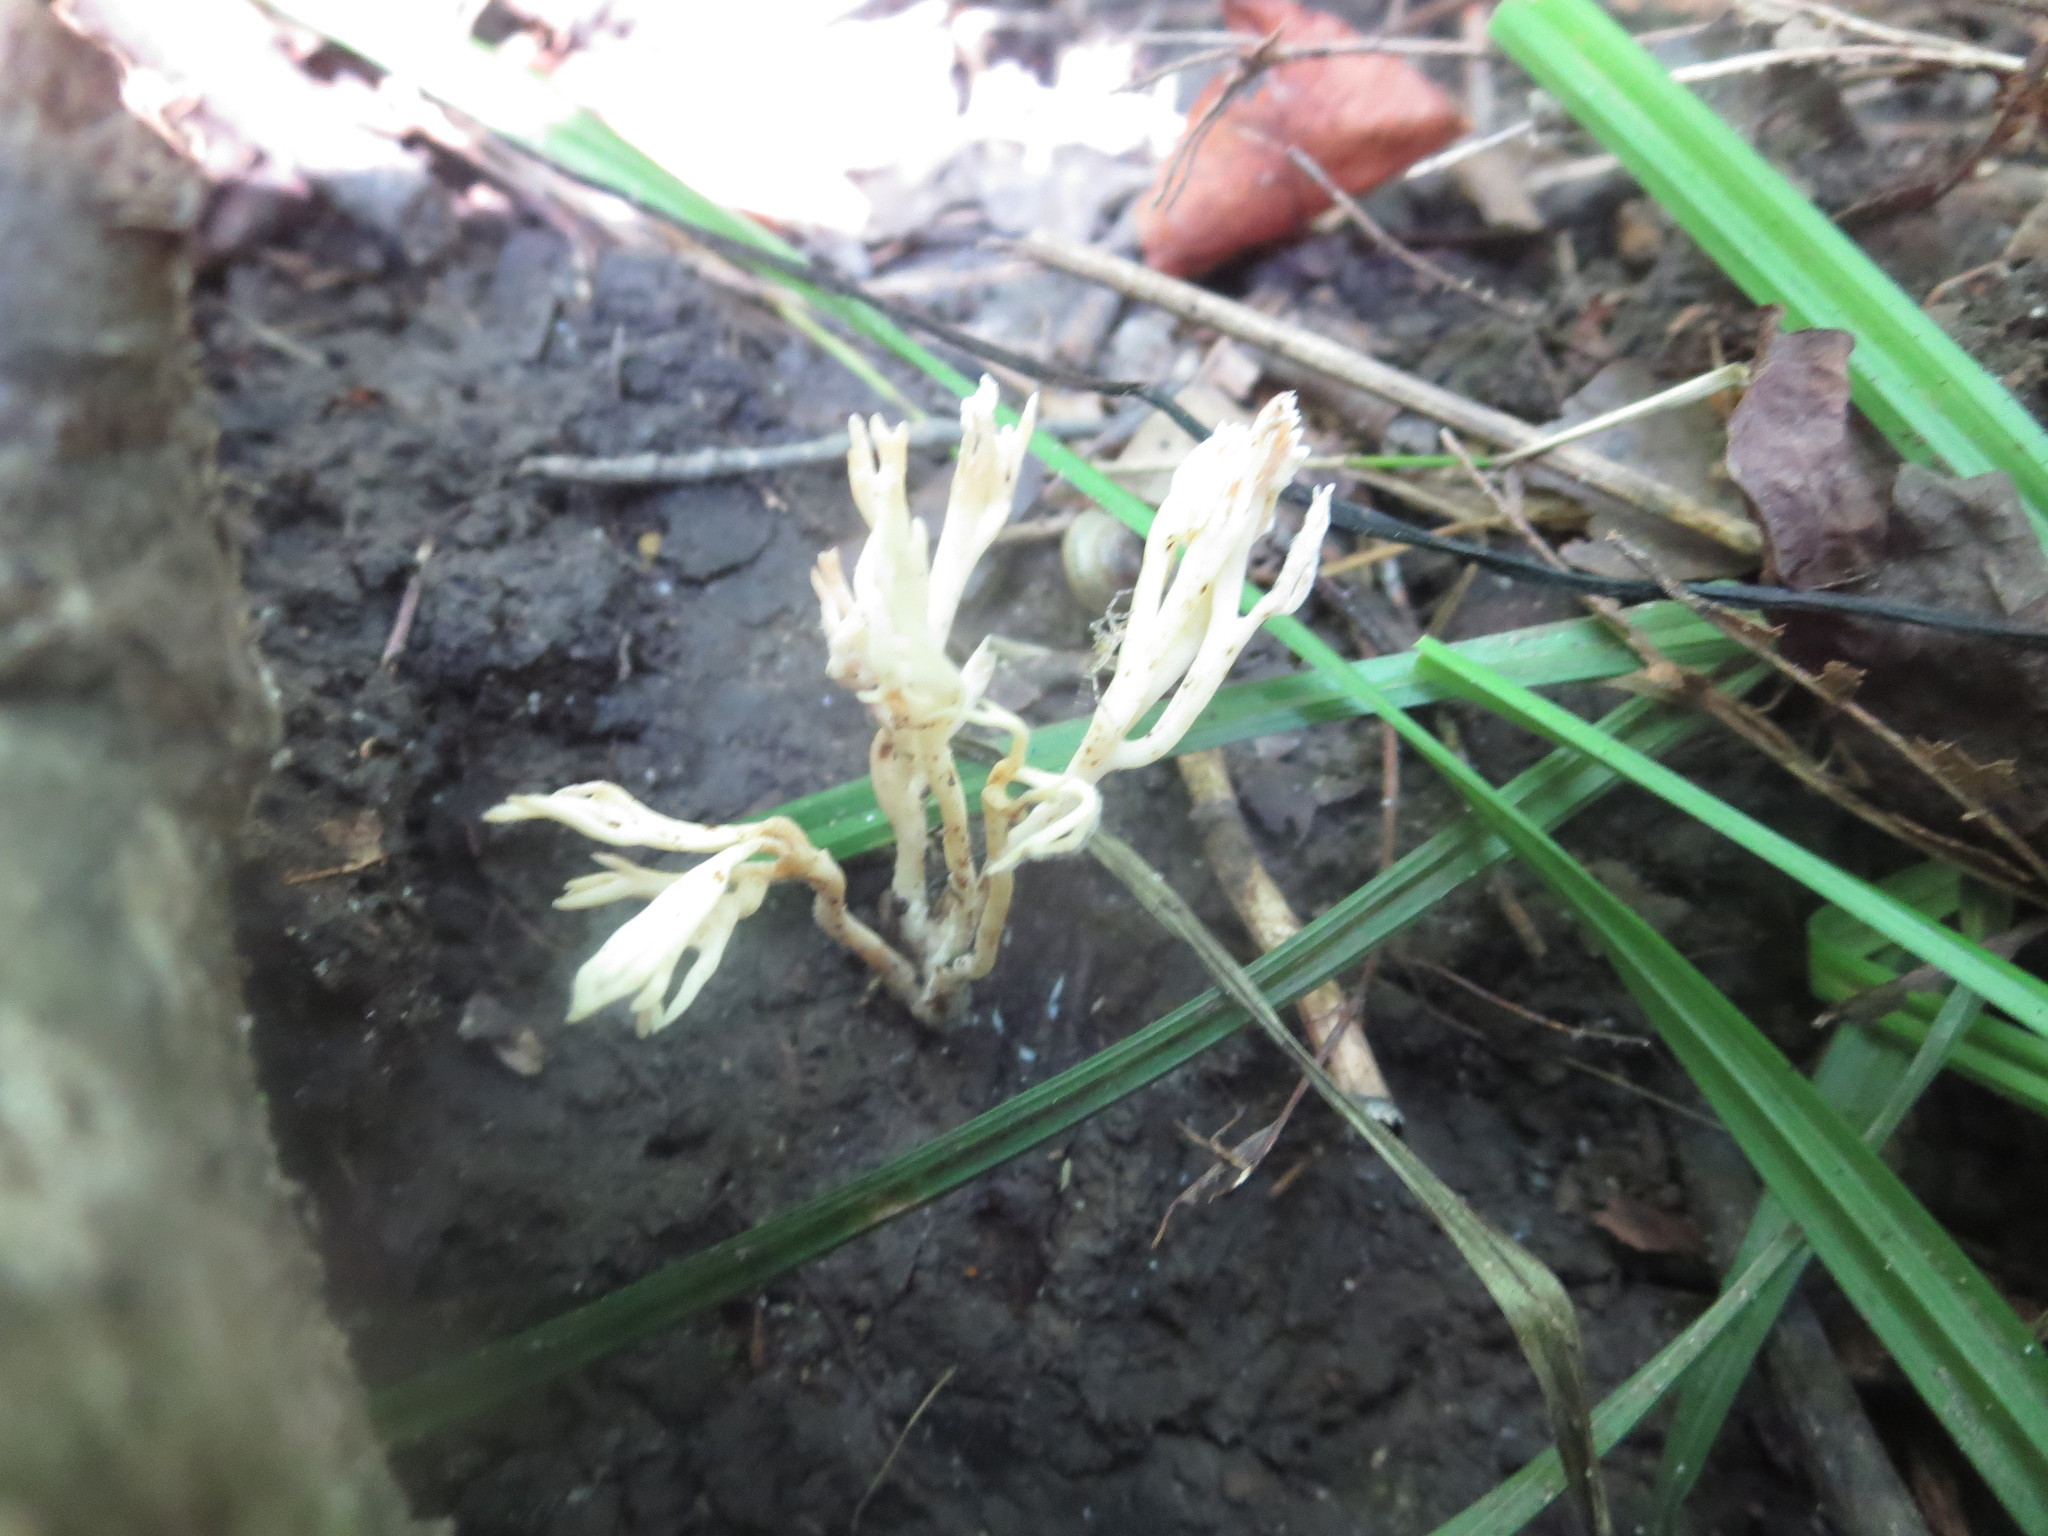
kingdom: Fungi
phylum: Basidiomycota
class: Agaricomycetes
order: Cantharellales
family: Hydnaceae
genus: Clavulina
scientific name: Clavulina coralloides
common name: Crested coral
